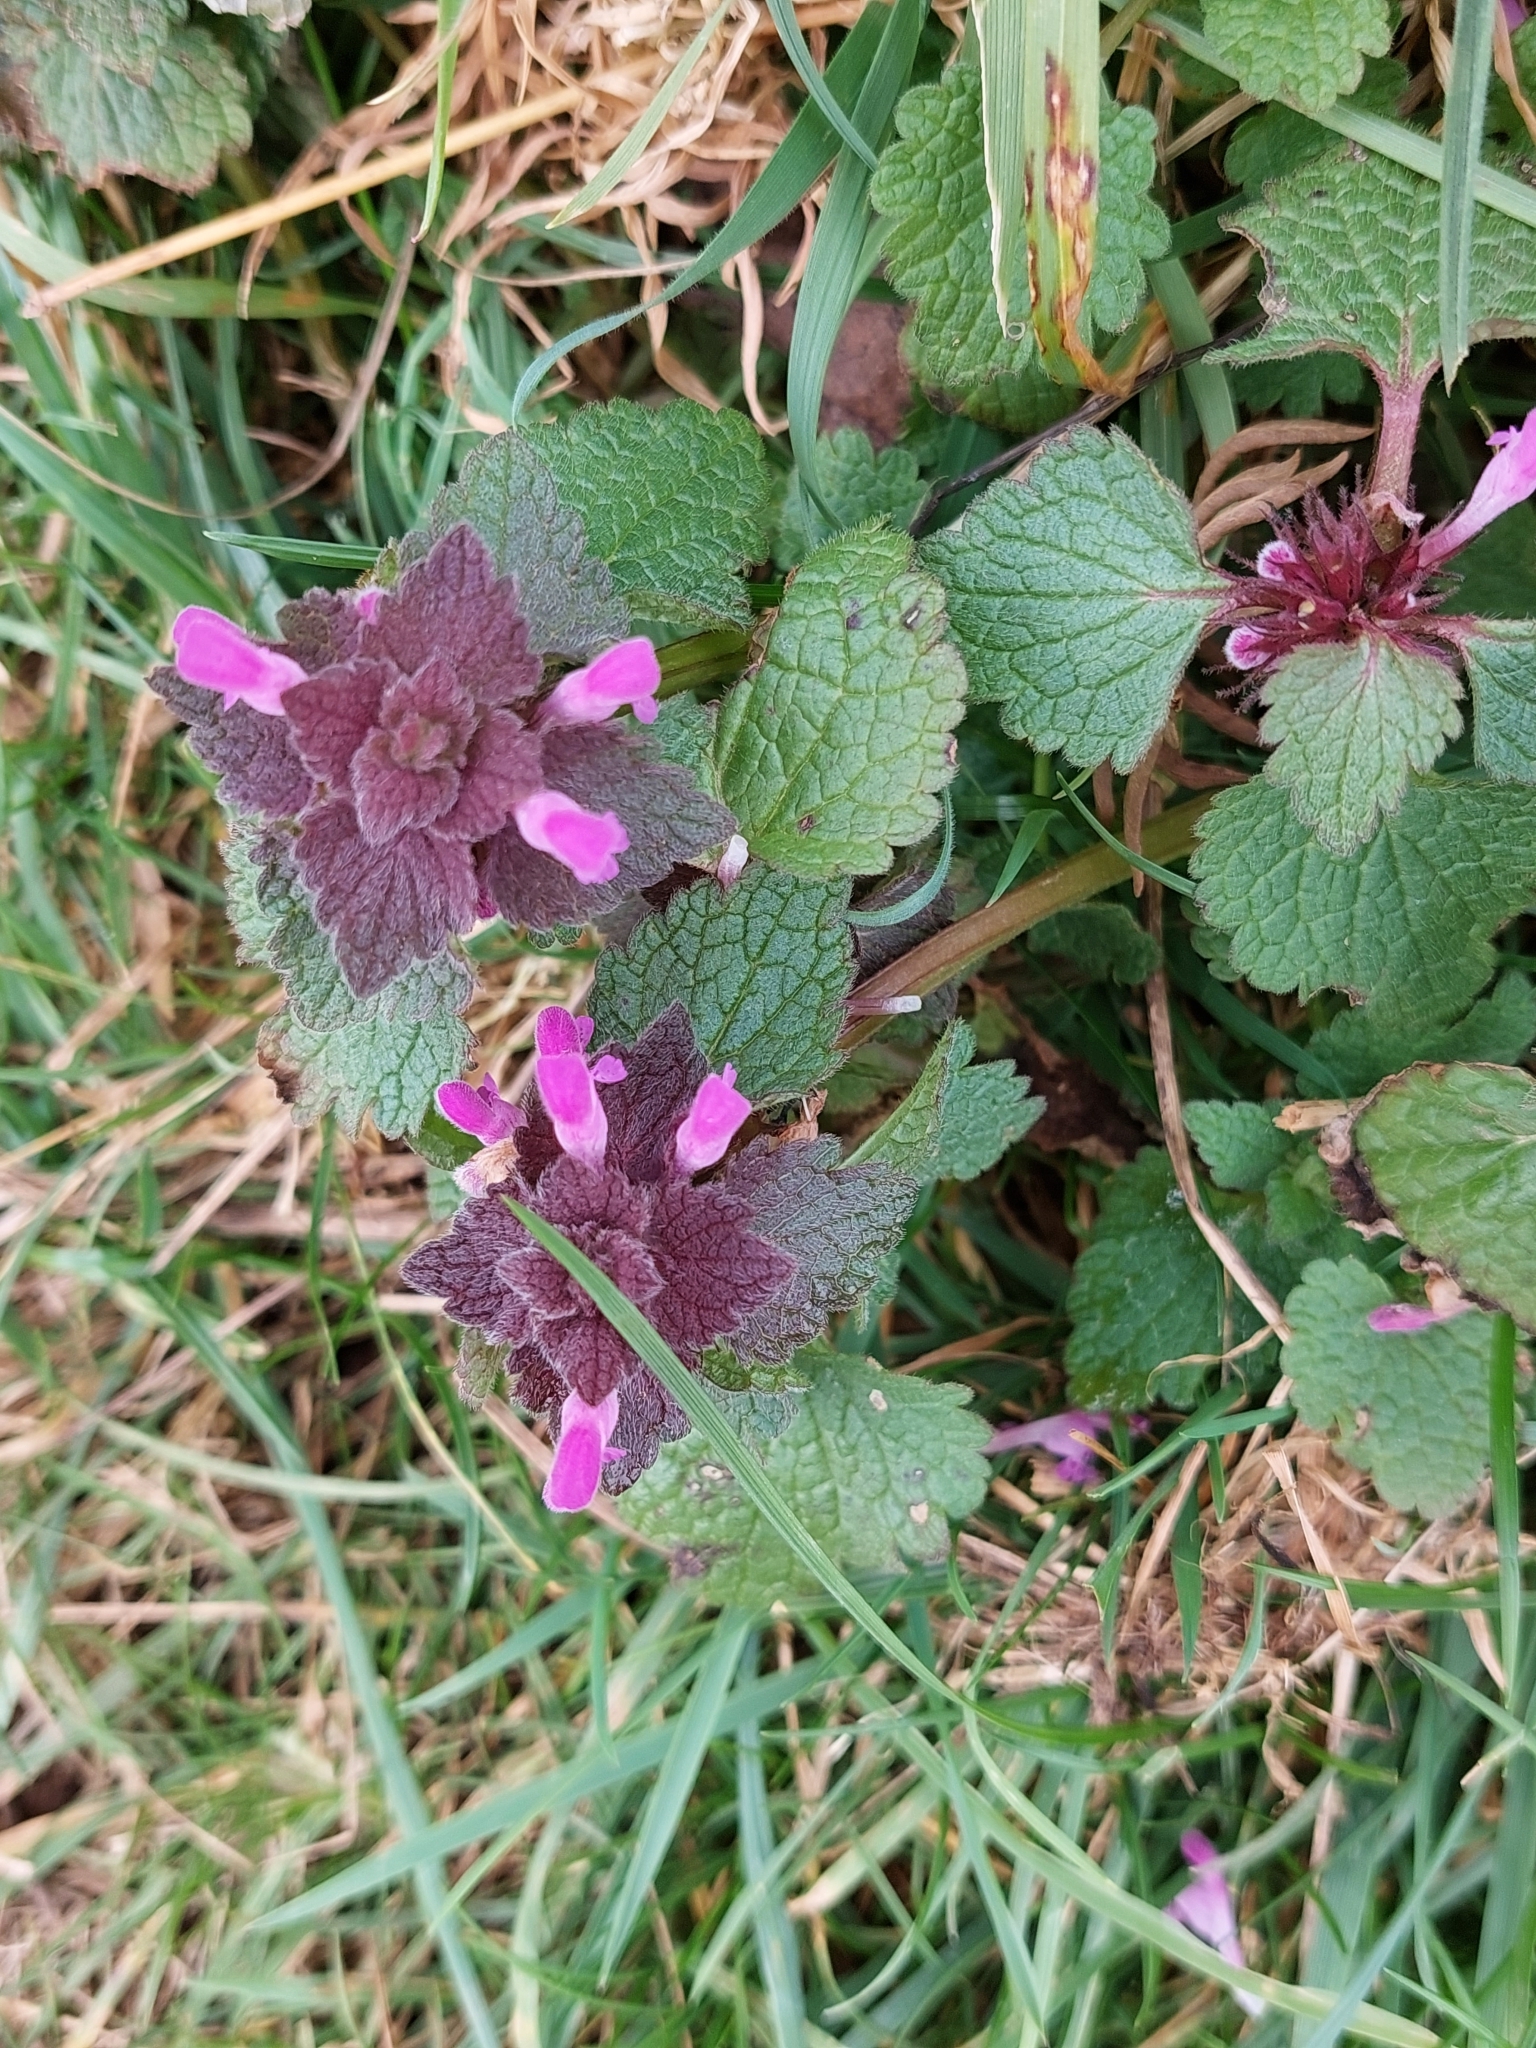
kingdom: Plantae
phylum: Tracheophyta
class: Magnoliopsida
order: Lamiales
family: Lamiaceae
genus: Lamium
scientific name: Lamium purpureum
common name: Red dead-nettle
